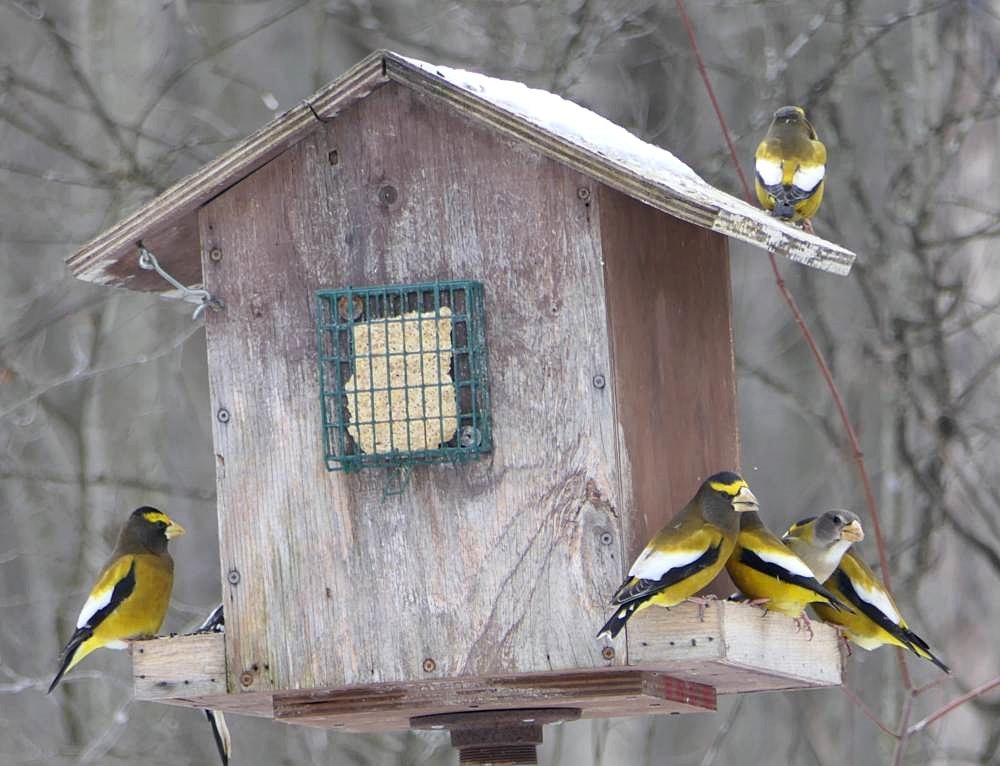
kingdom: Animalia
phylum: Chordata
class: Aves
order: Passeriformes
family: Fringillidae
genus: Hesperiphona
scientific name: Hesperiphona vespertina
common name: Evening grosbeak
